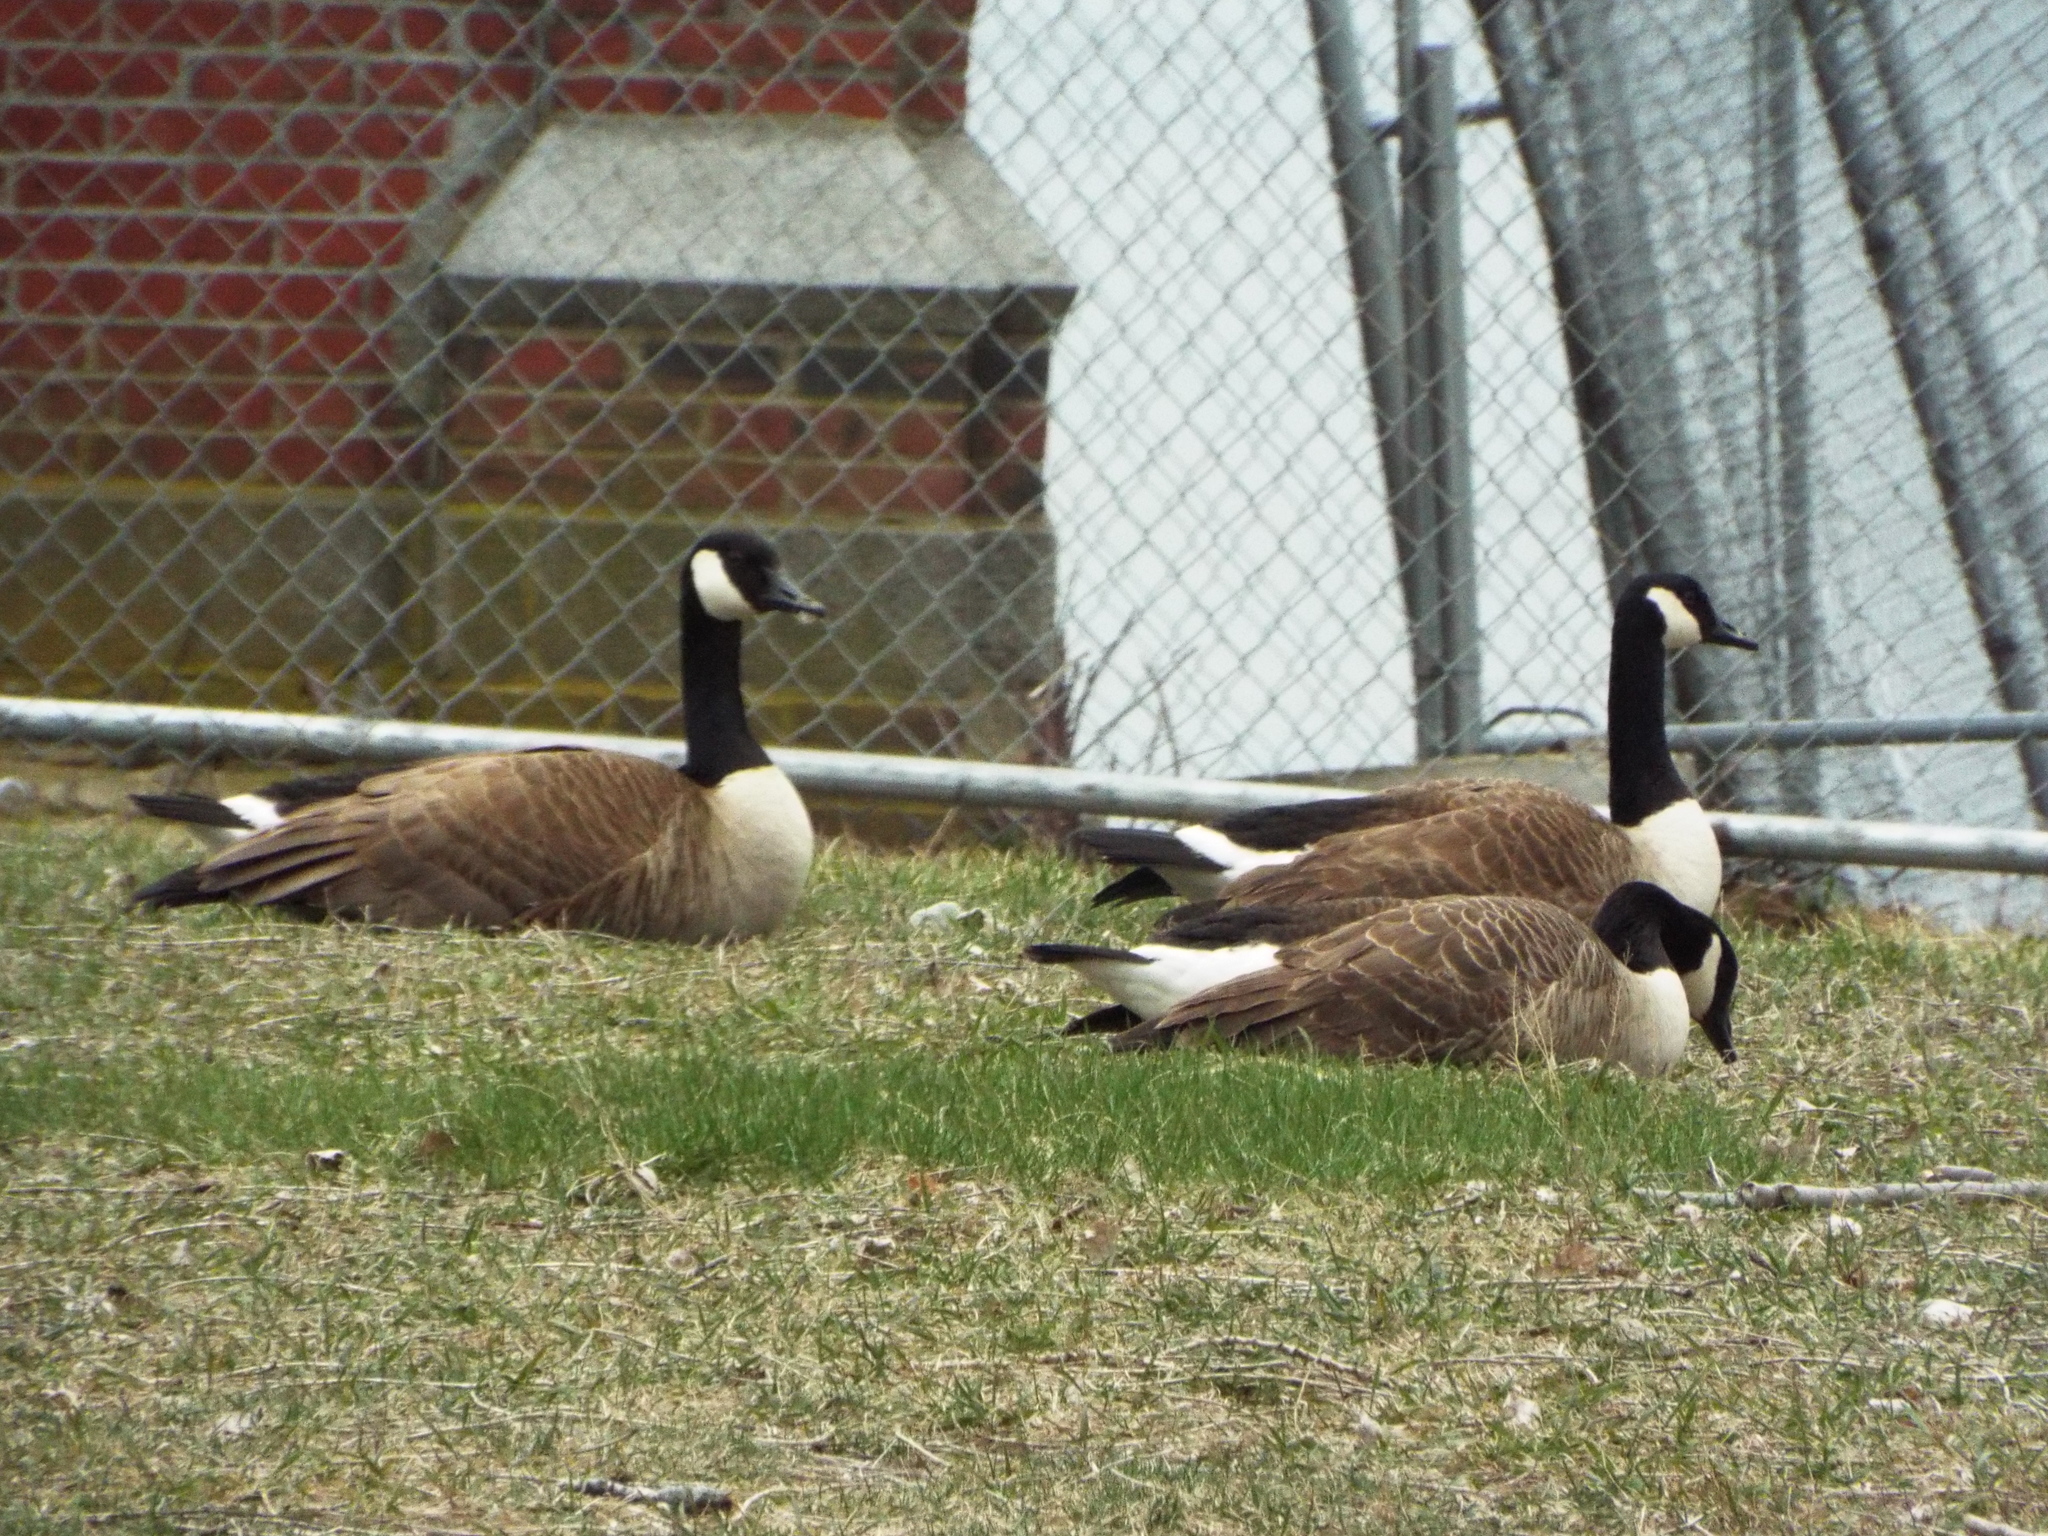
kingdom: Animalia
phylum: Chordata
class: Aves
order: Anseriformes
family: Anatidae
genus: Branta
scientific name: Branta canadensis
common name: Canada goose
